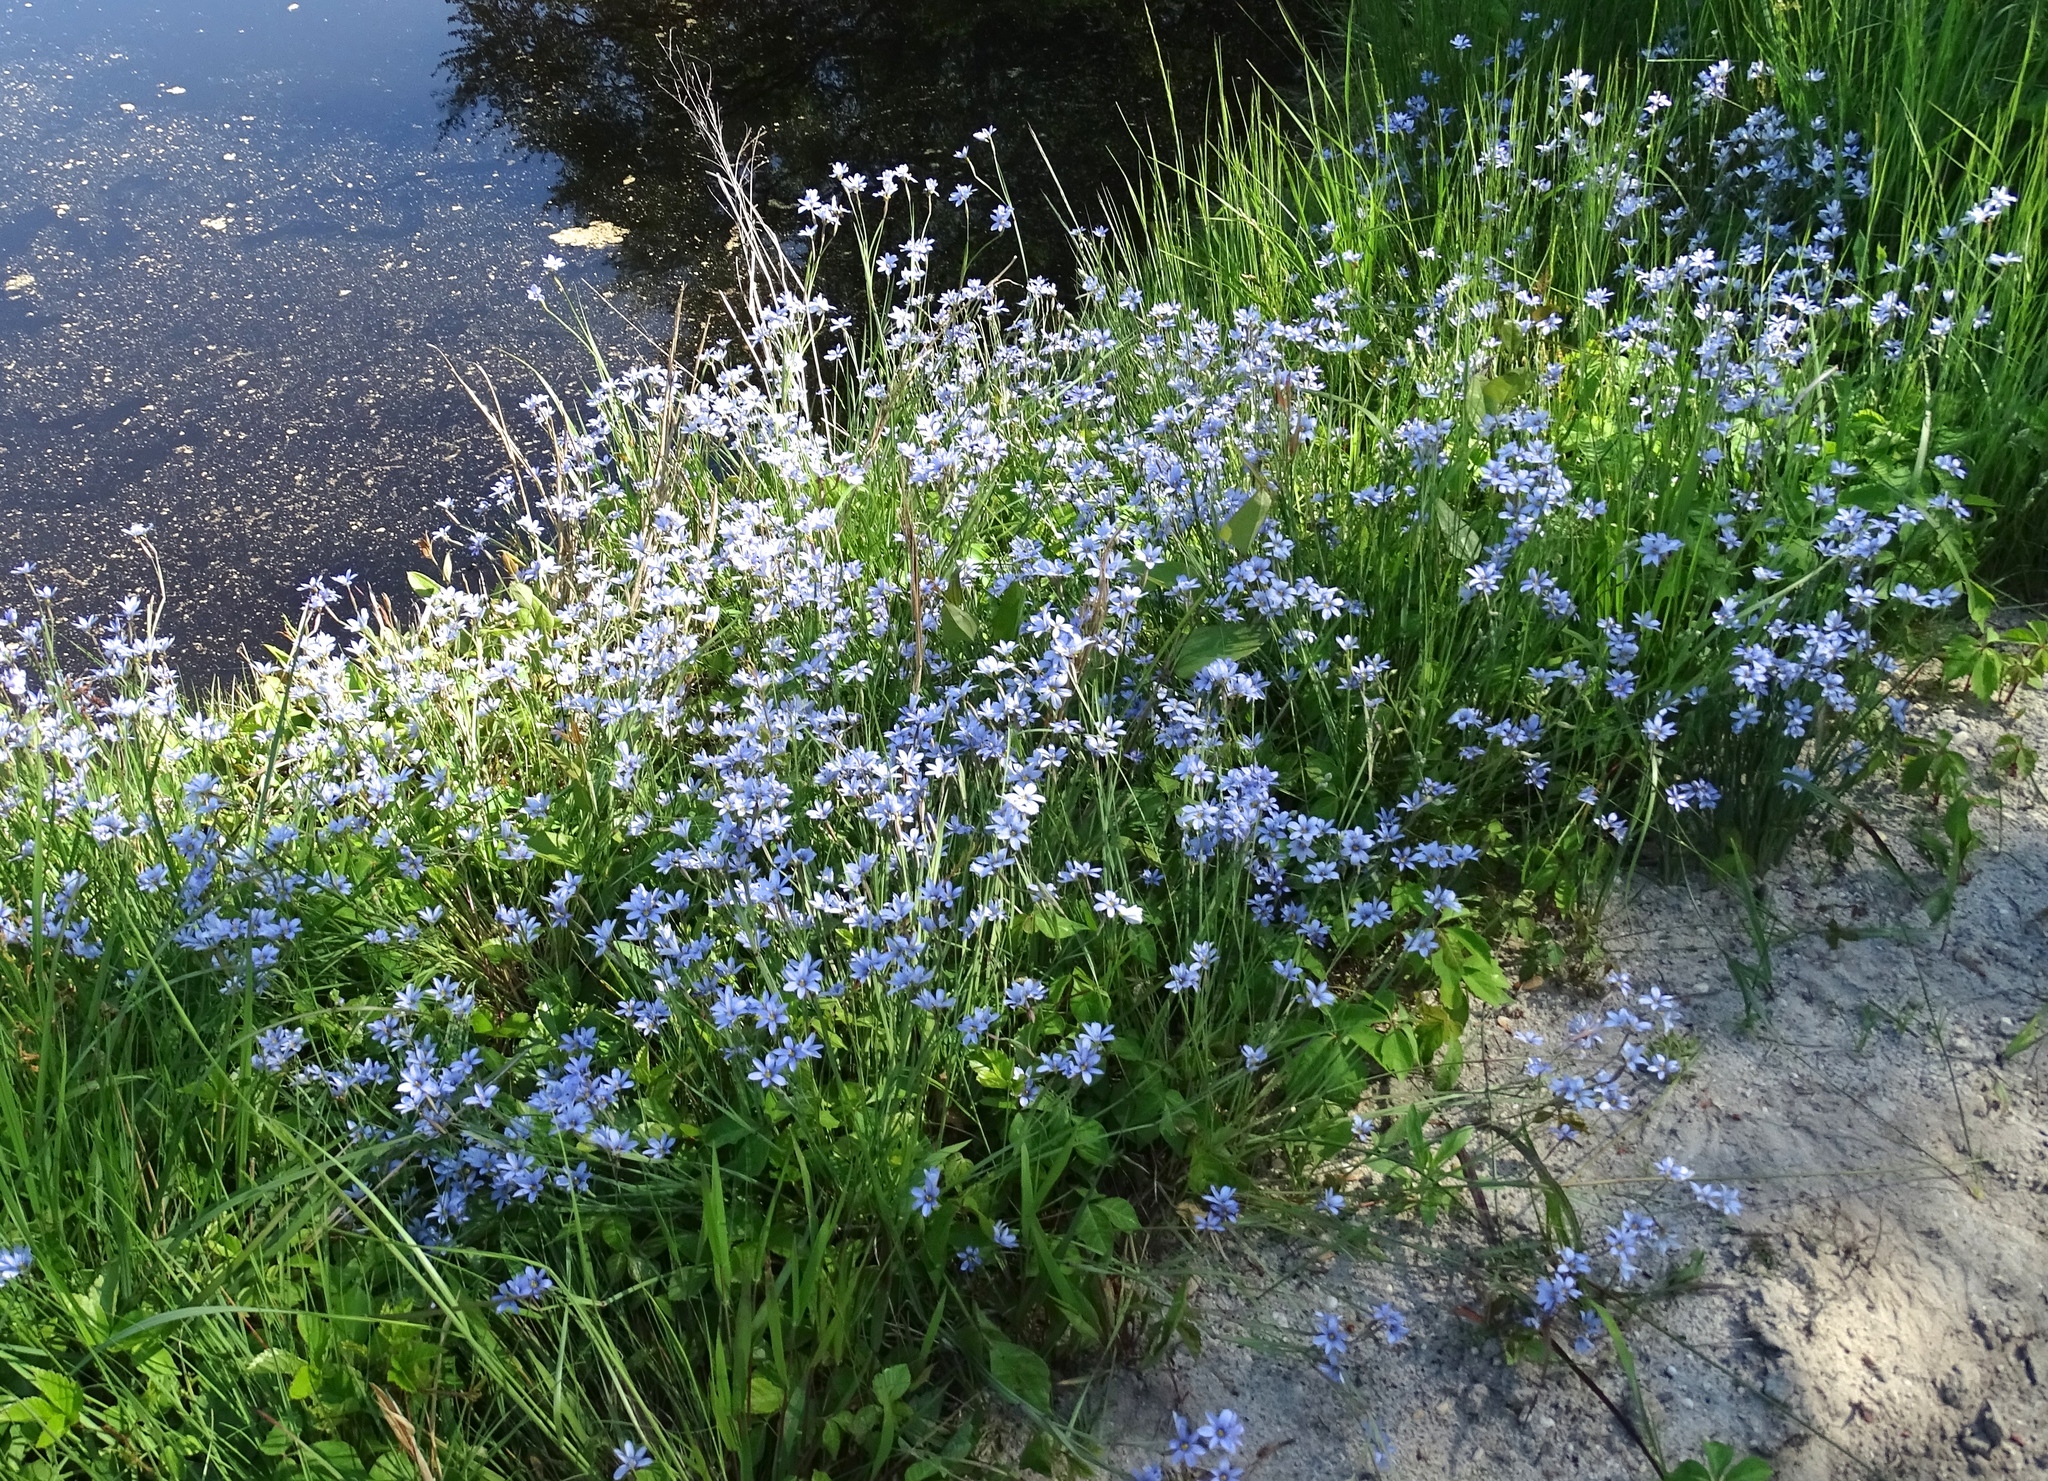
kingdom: Plantae
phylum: Tracheophyta
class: Liliopsida
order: Asparagales
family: Iridaceae
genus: Sisyrinchium
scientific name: Sisyrinchium atlanticum
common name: Eastern blue-eyed-grass
